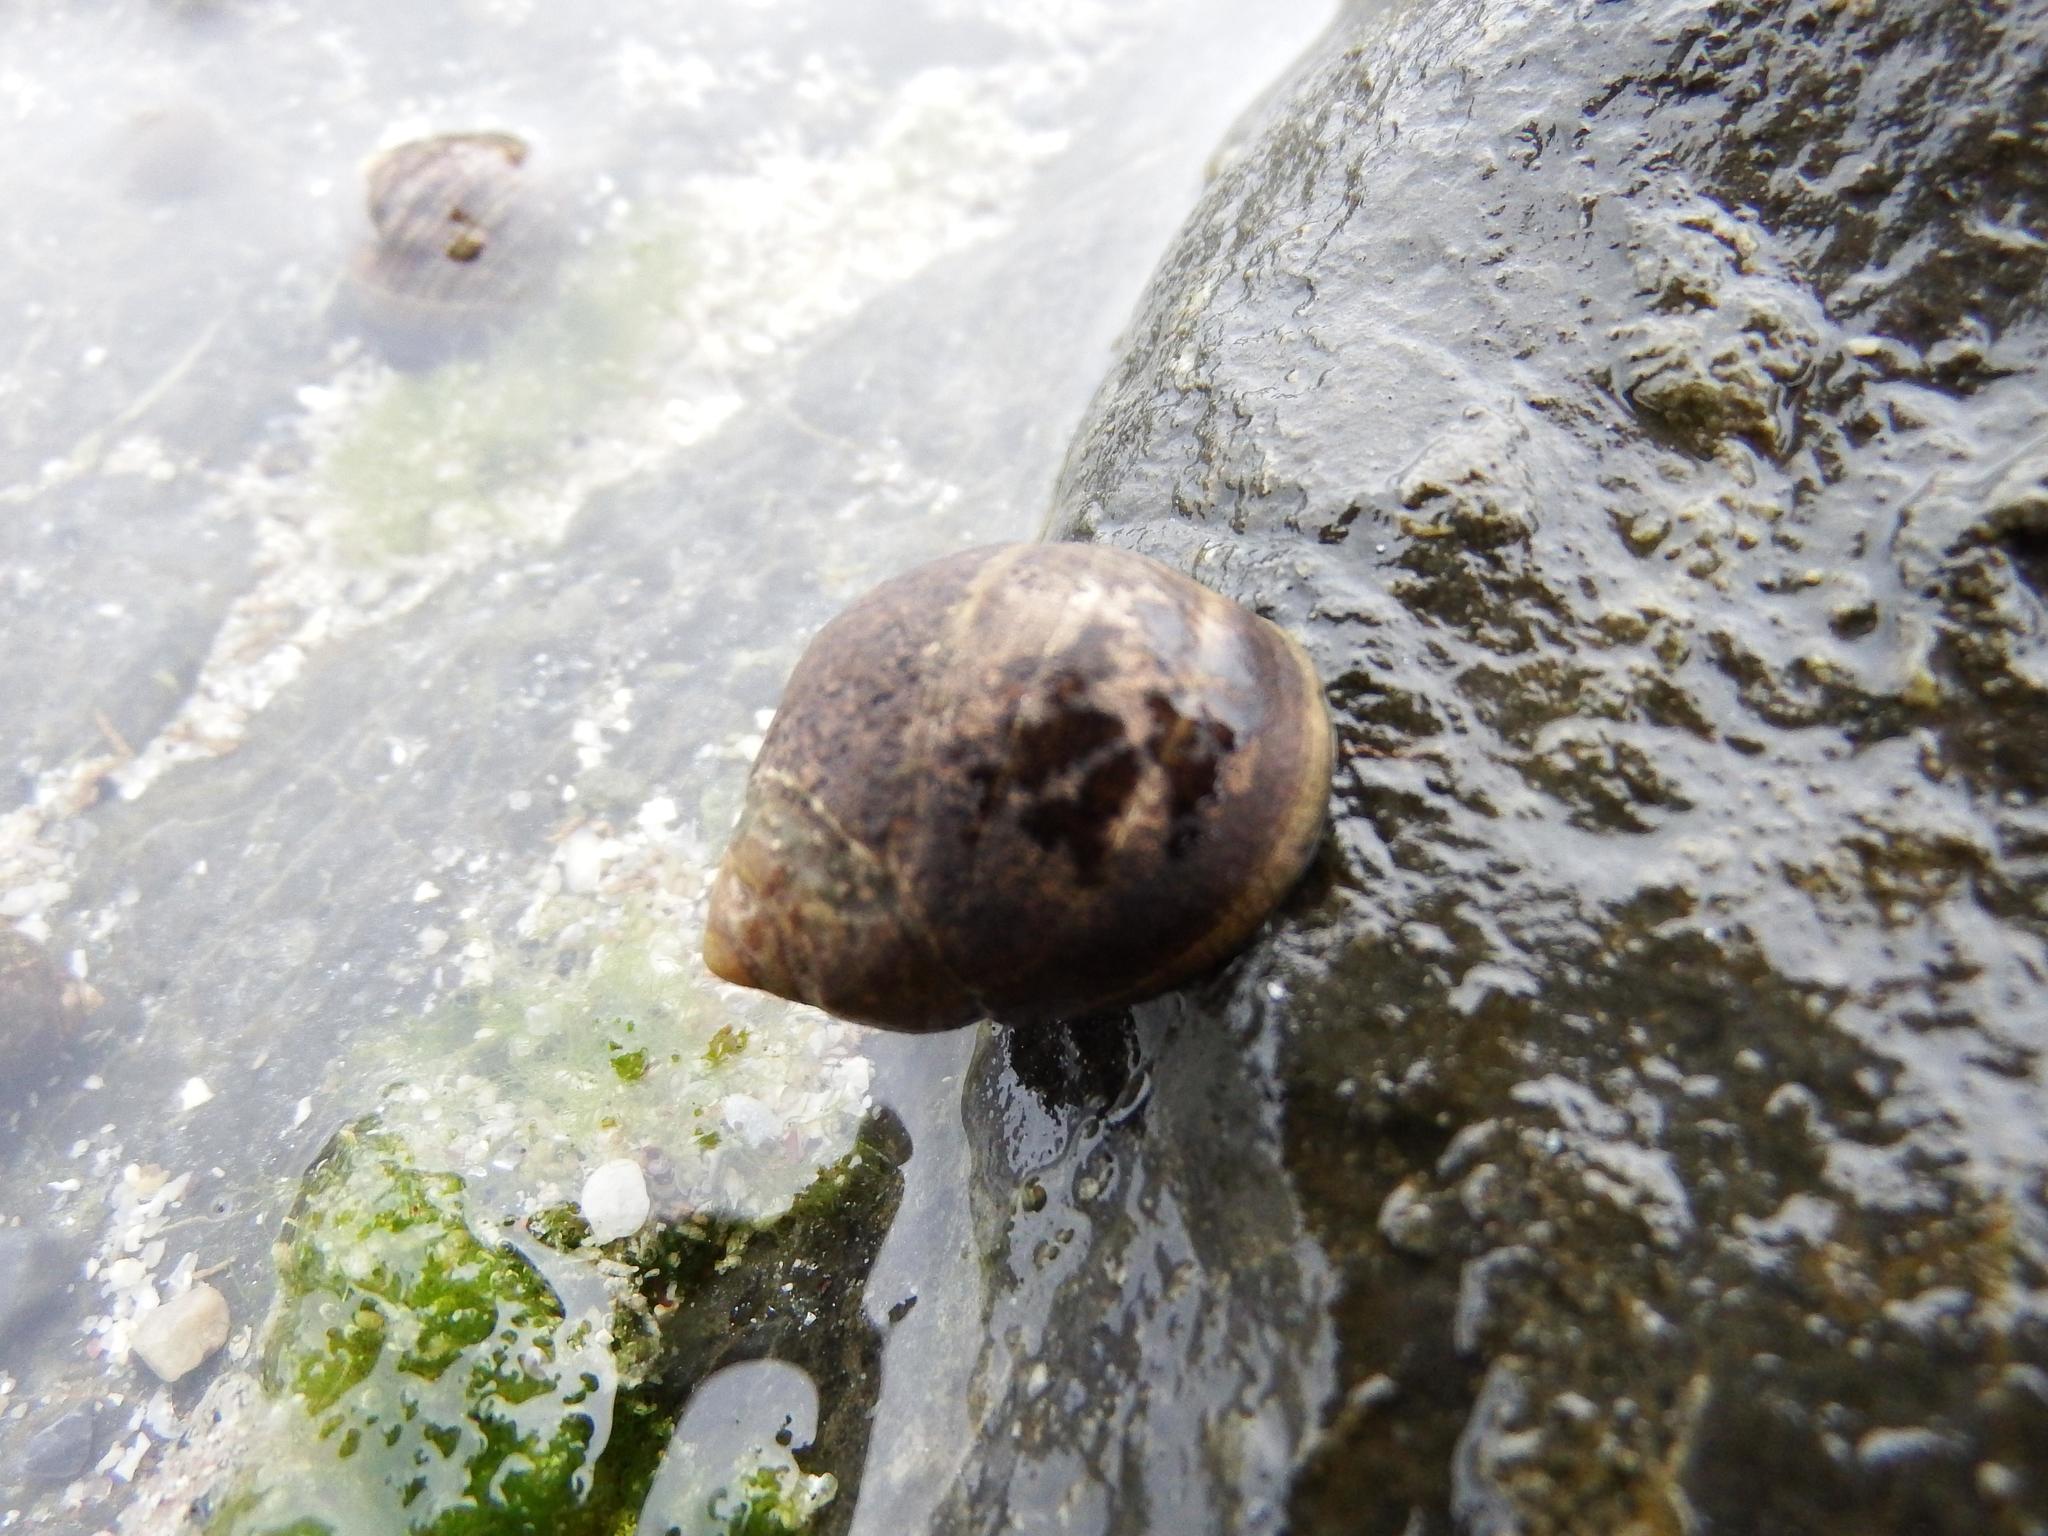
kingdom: Animalia
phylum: Mollusca
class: Gastropoda
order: Littorinimorpha
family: Littorinidae
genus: Littorina
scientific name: Littorina littorea
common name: Common periwinkle
